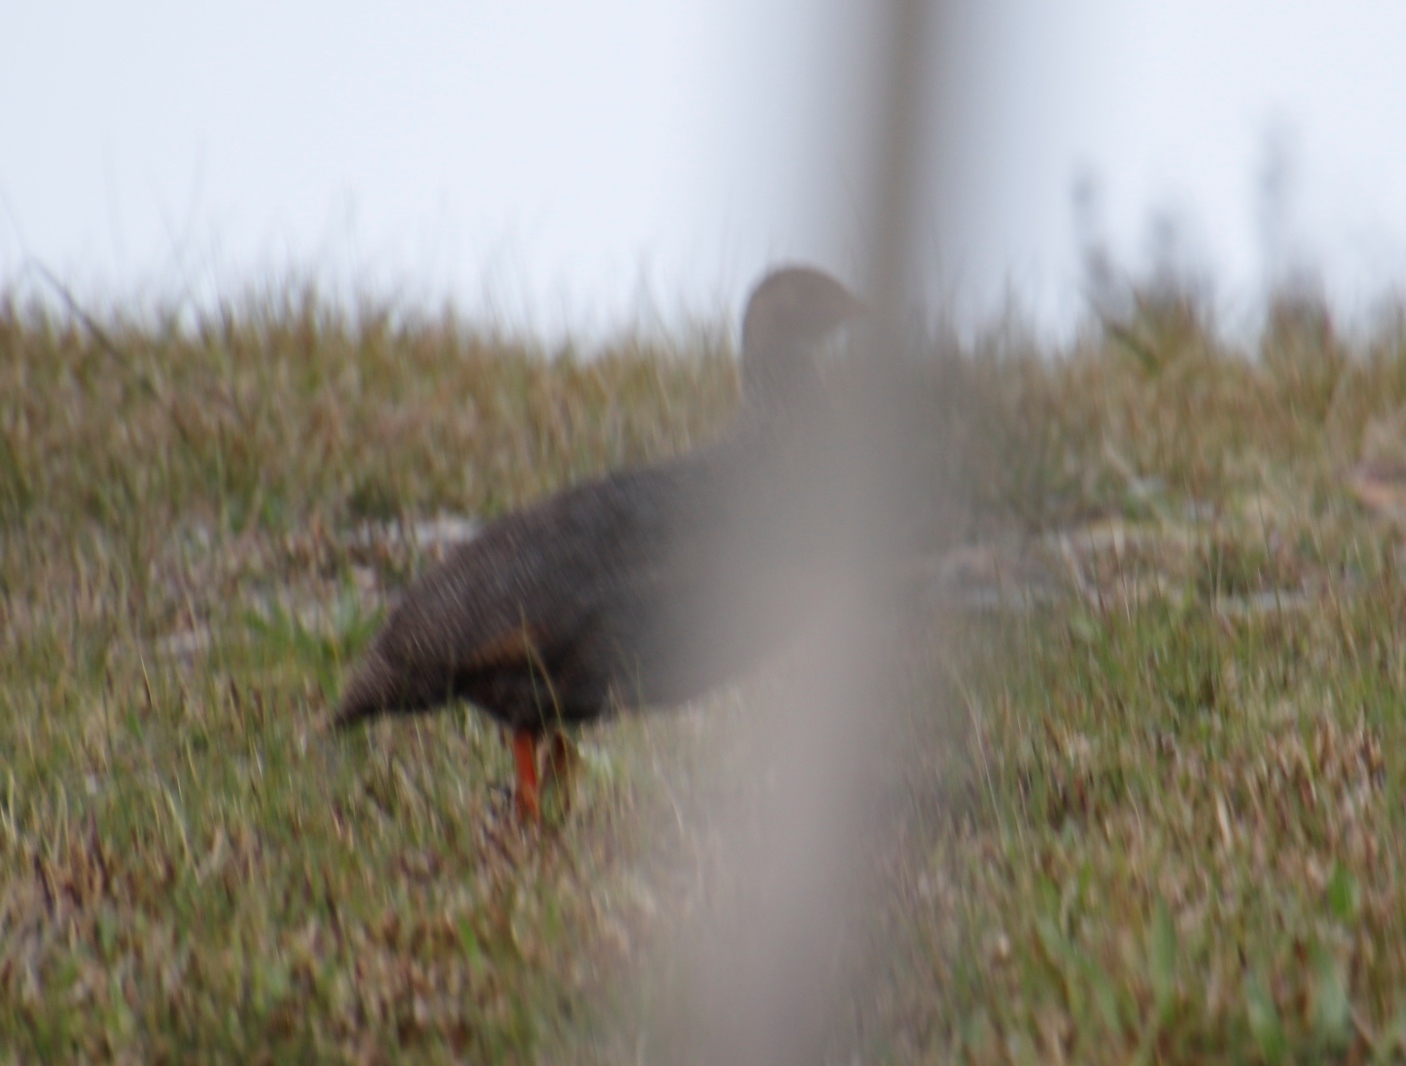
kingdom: Animalia
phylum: Chordata
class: Aves
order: Galliformes
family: Phasianidae
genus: Pternistis
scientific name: Pternistis capensis
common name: Cape spurfowl
